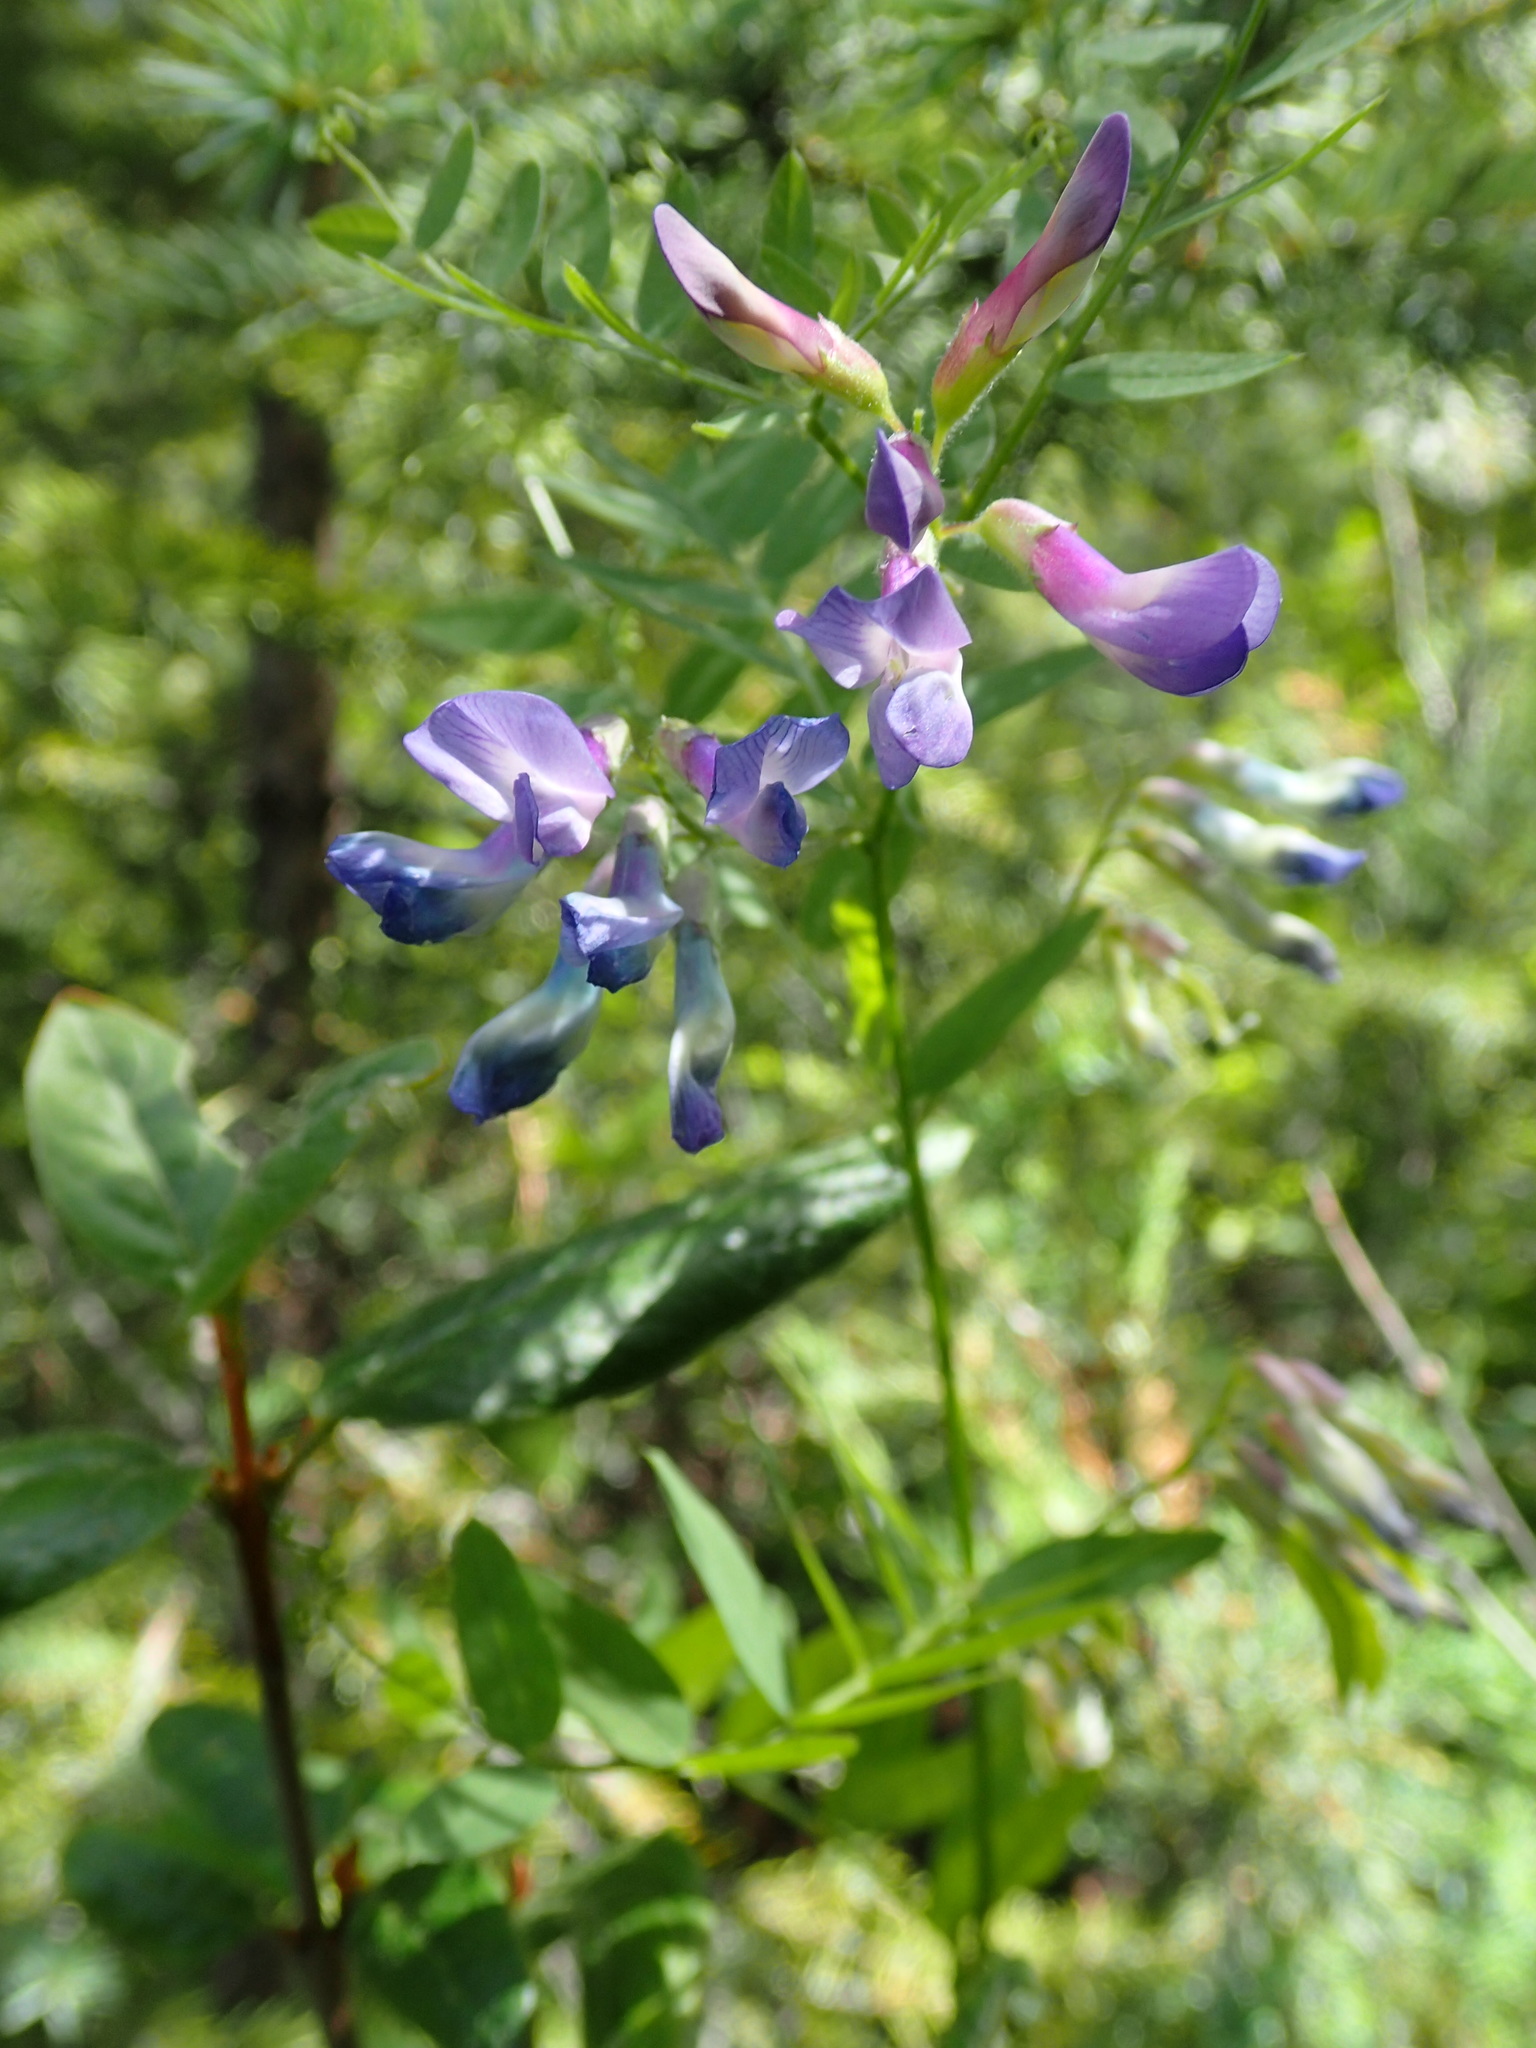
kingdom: Plantae
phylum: Tracheophyta
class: Magnoliopsida
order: Fabales
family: Fabaceae
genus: Vicia
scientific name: Vicia americana
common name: American vetch
